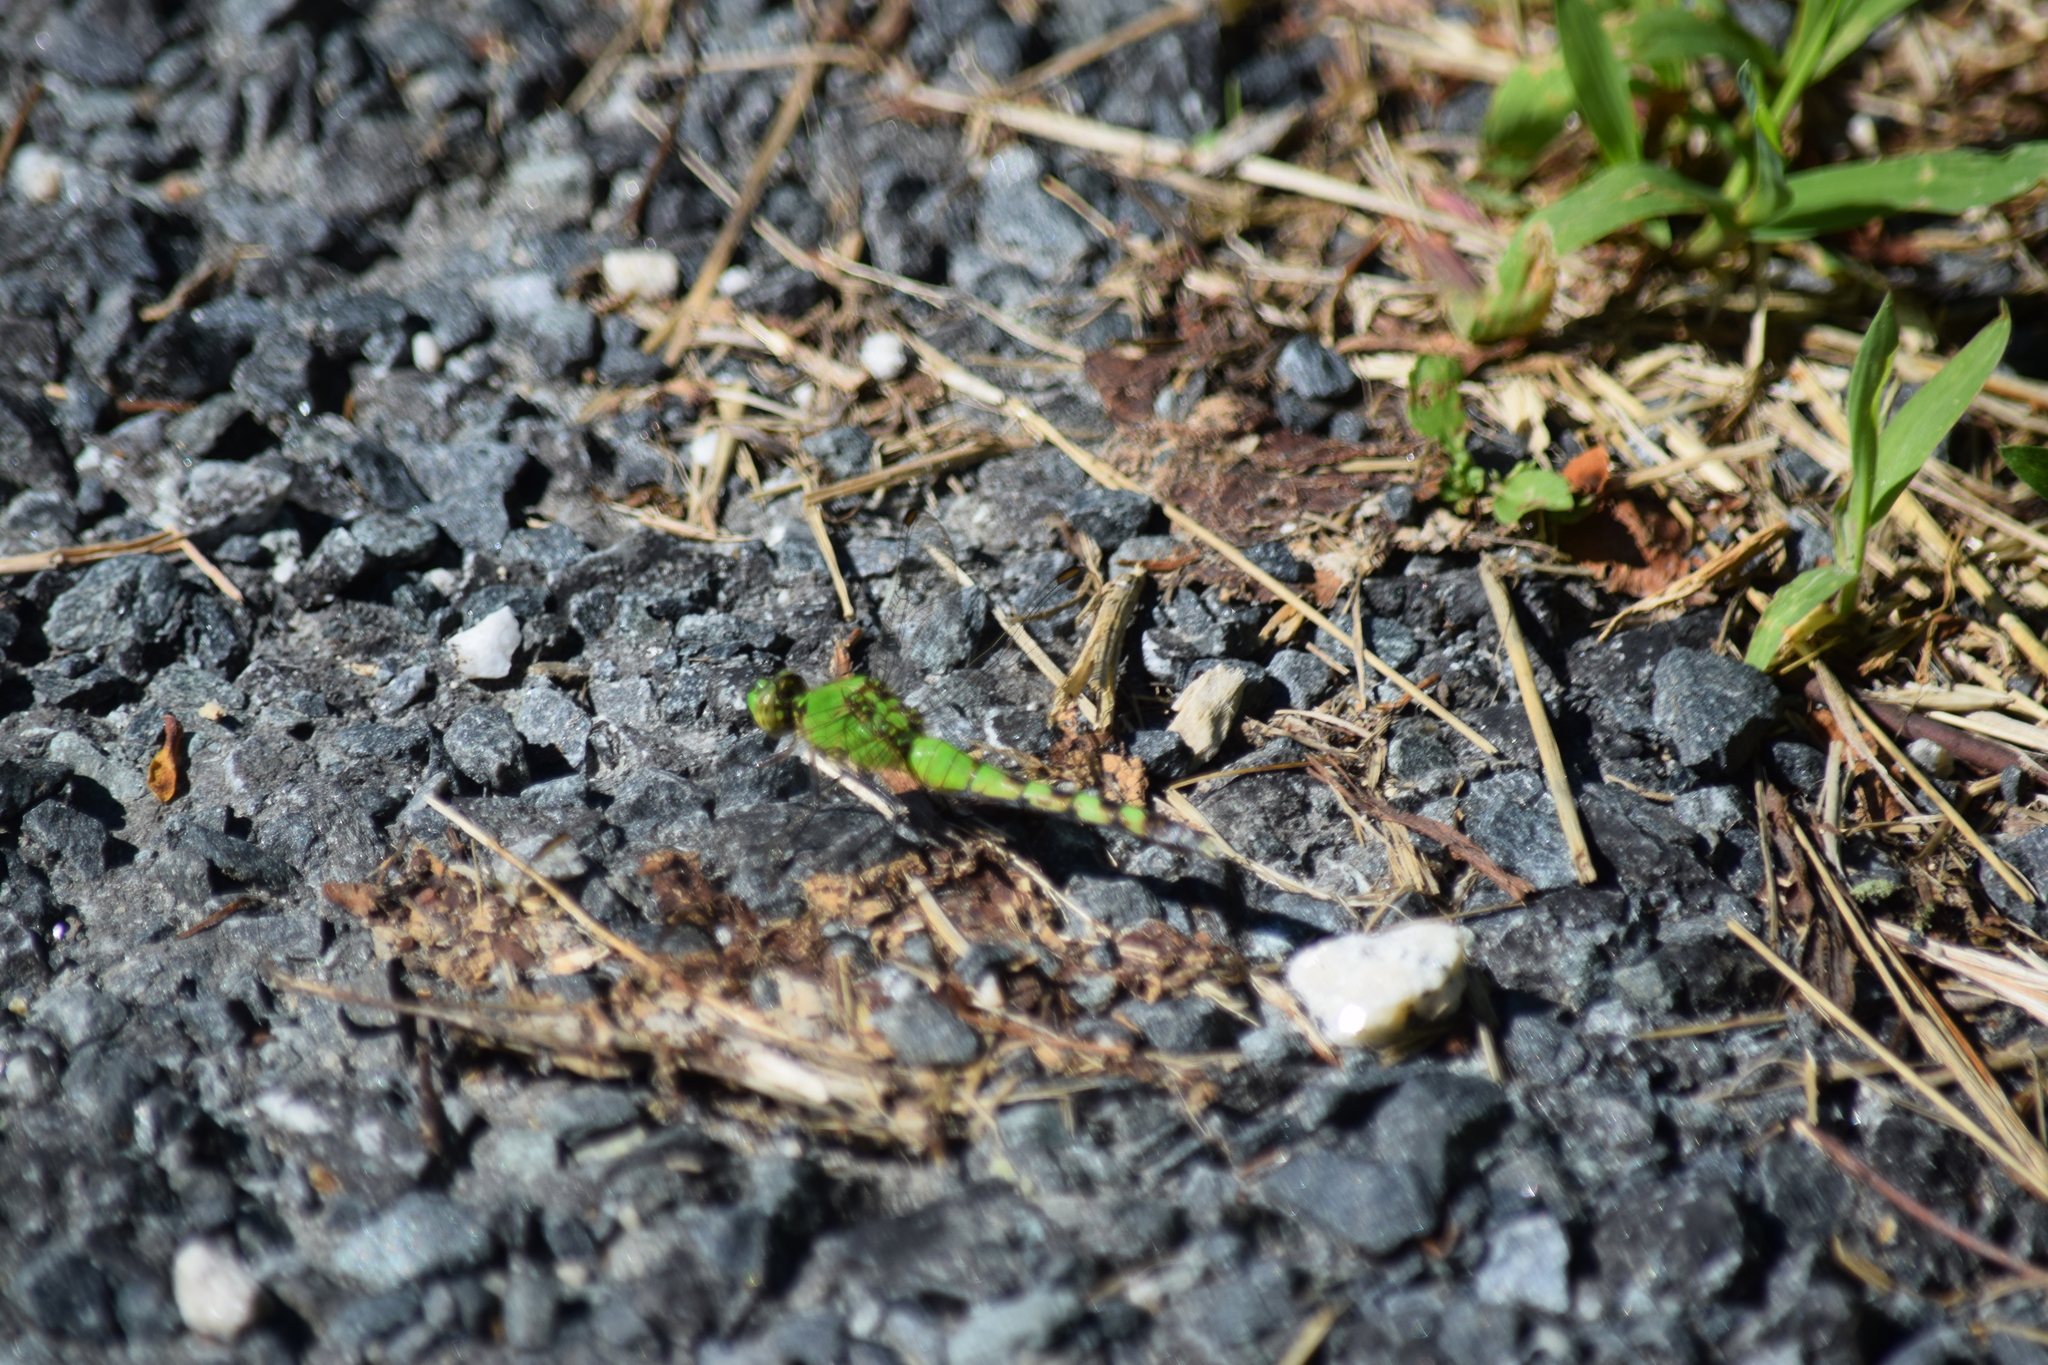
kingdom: Animalia
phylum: Arthropoda
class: Insecta
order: Odonata
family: Libellulidae
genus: Erythemis
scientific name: Erythemis simplicicollis
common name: Eastern pondhawk
